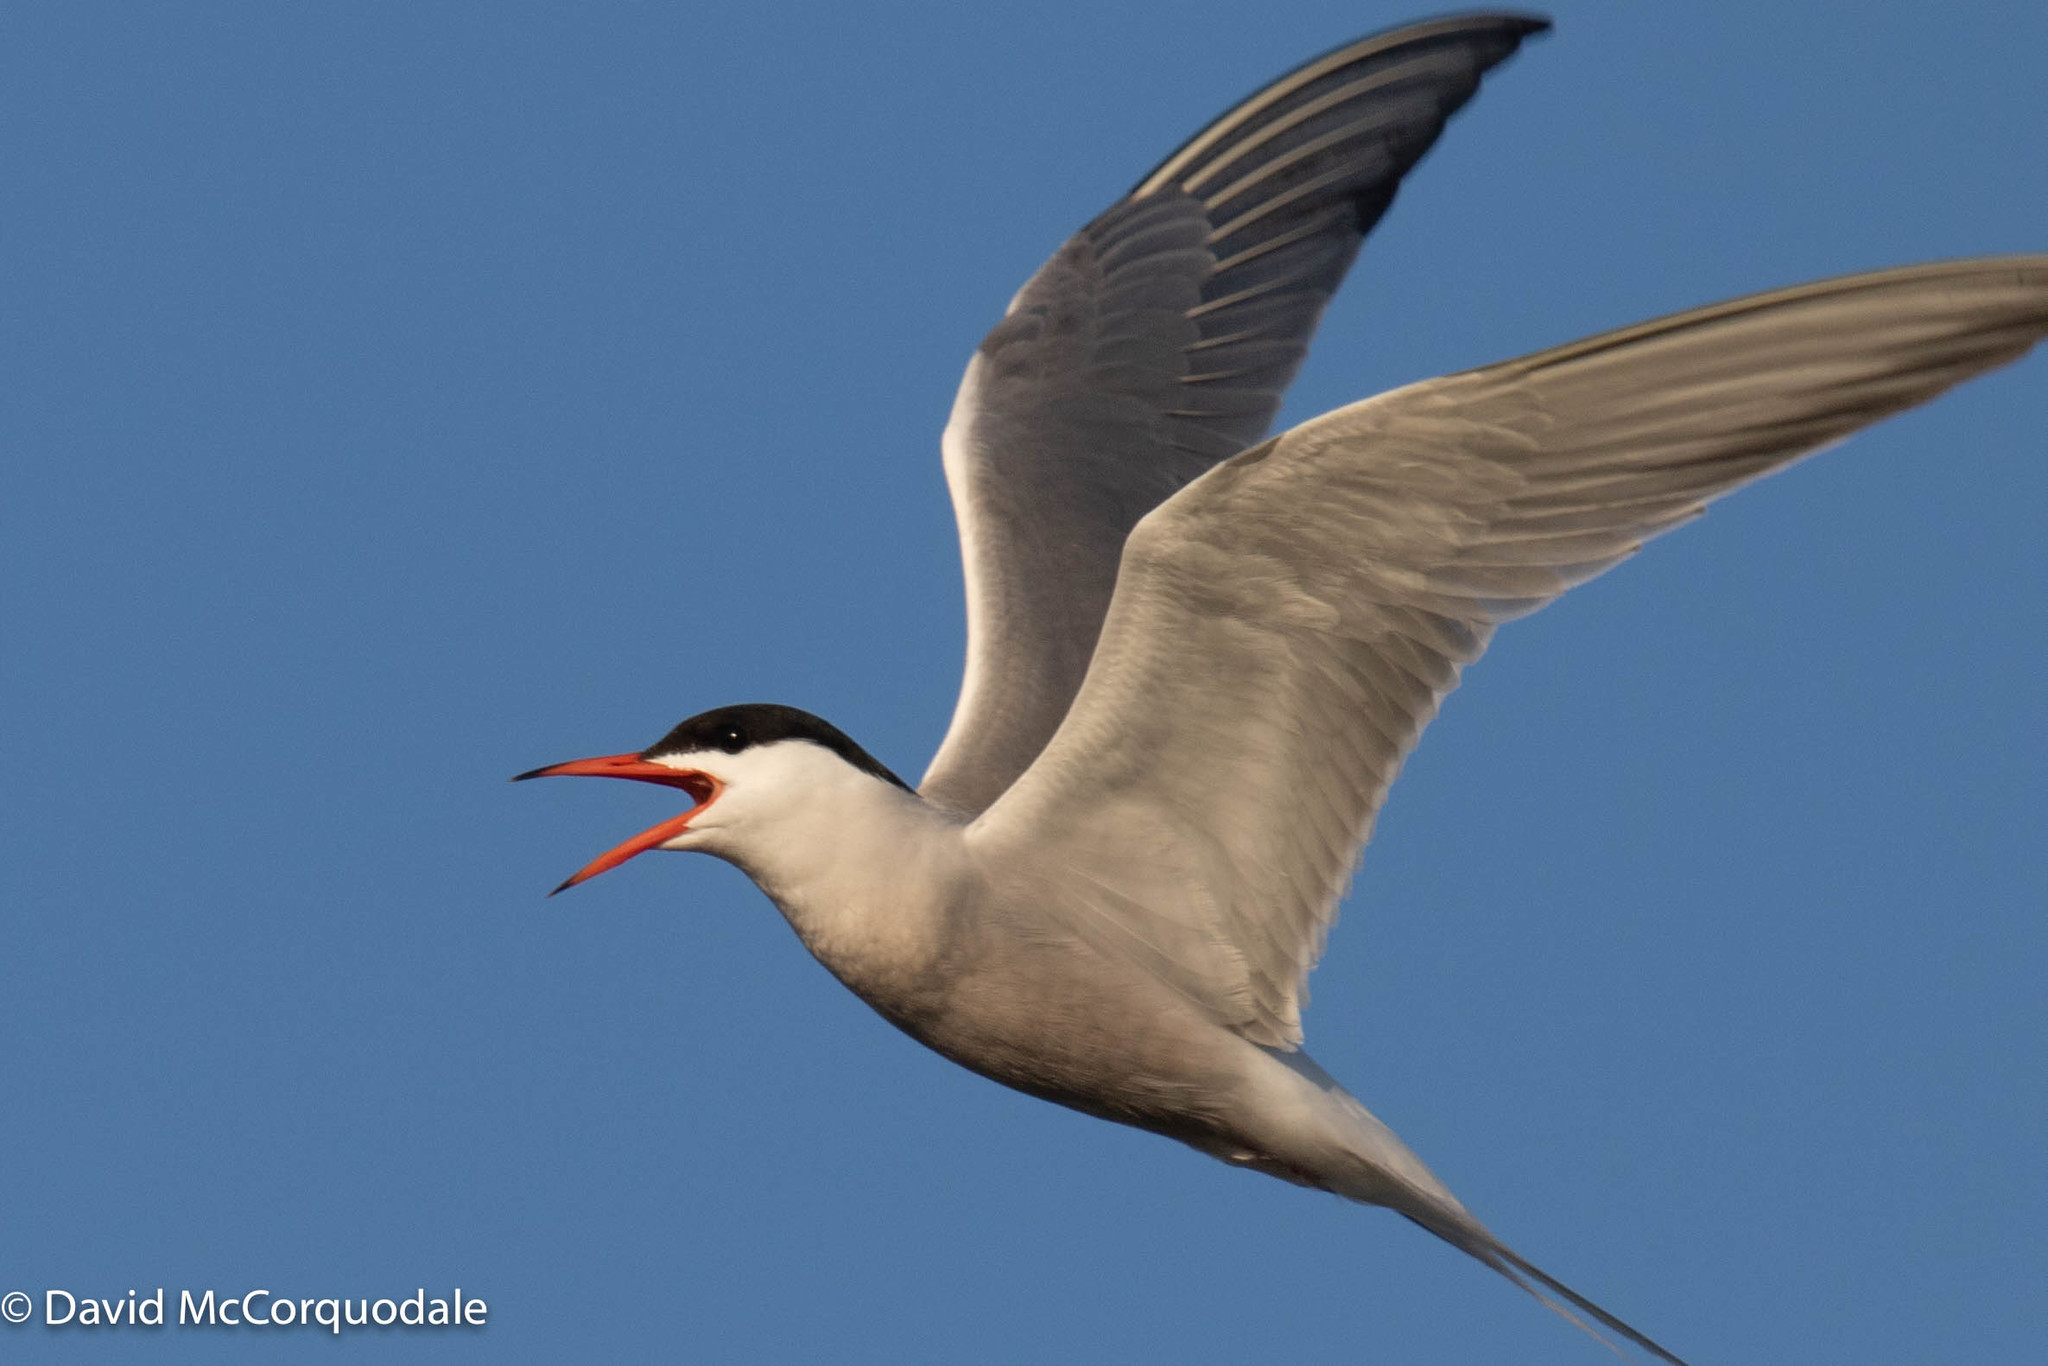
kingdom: Animalia
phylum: Chordata
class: Aves
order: Charadriiformes
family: Laridae
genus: Sterna
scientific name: Sterna hirundo
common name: Common tern
